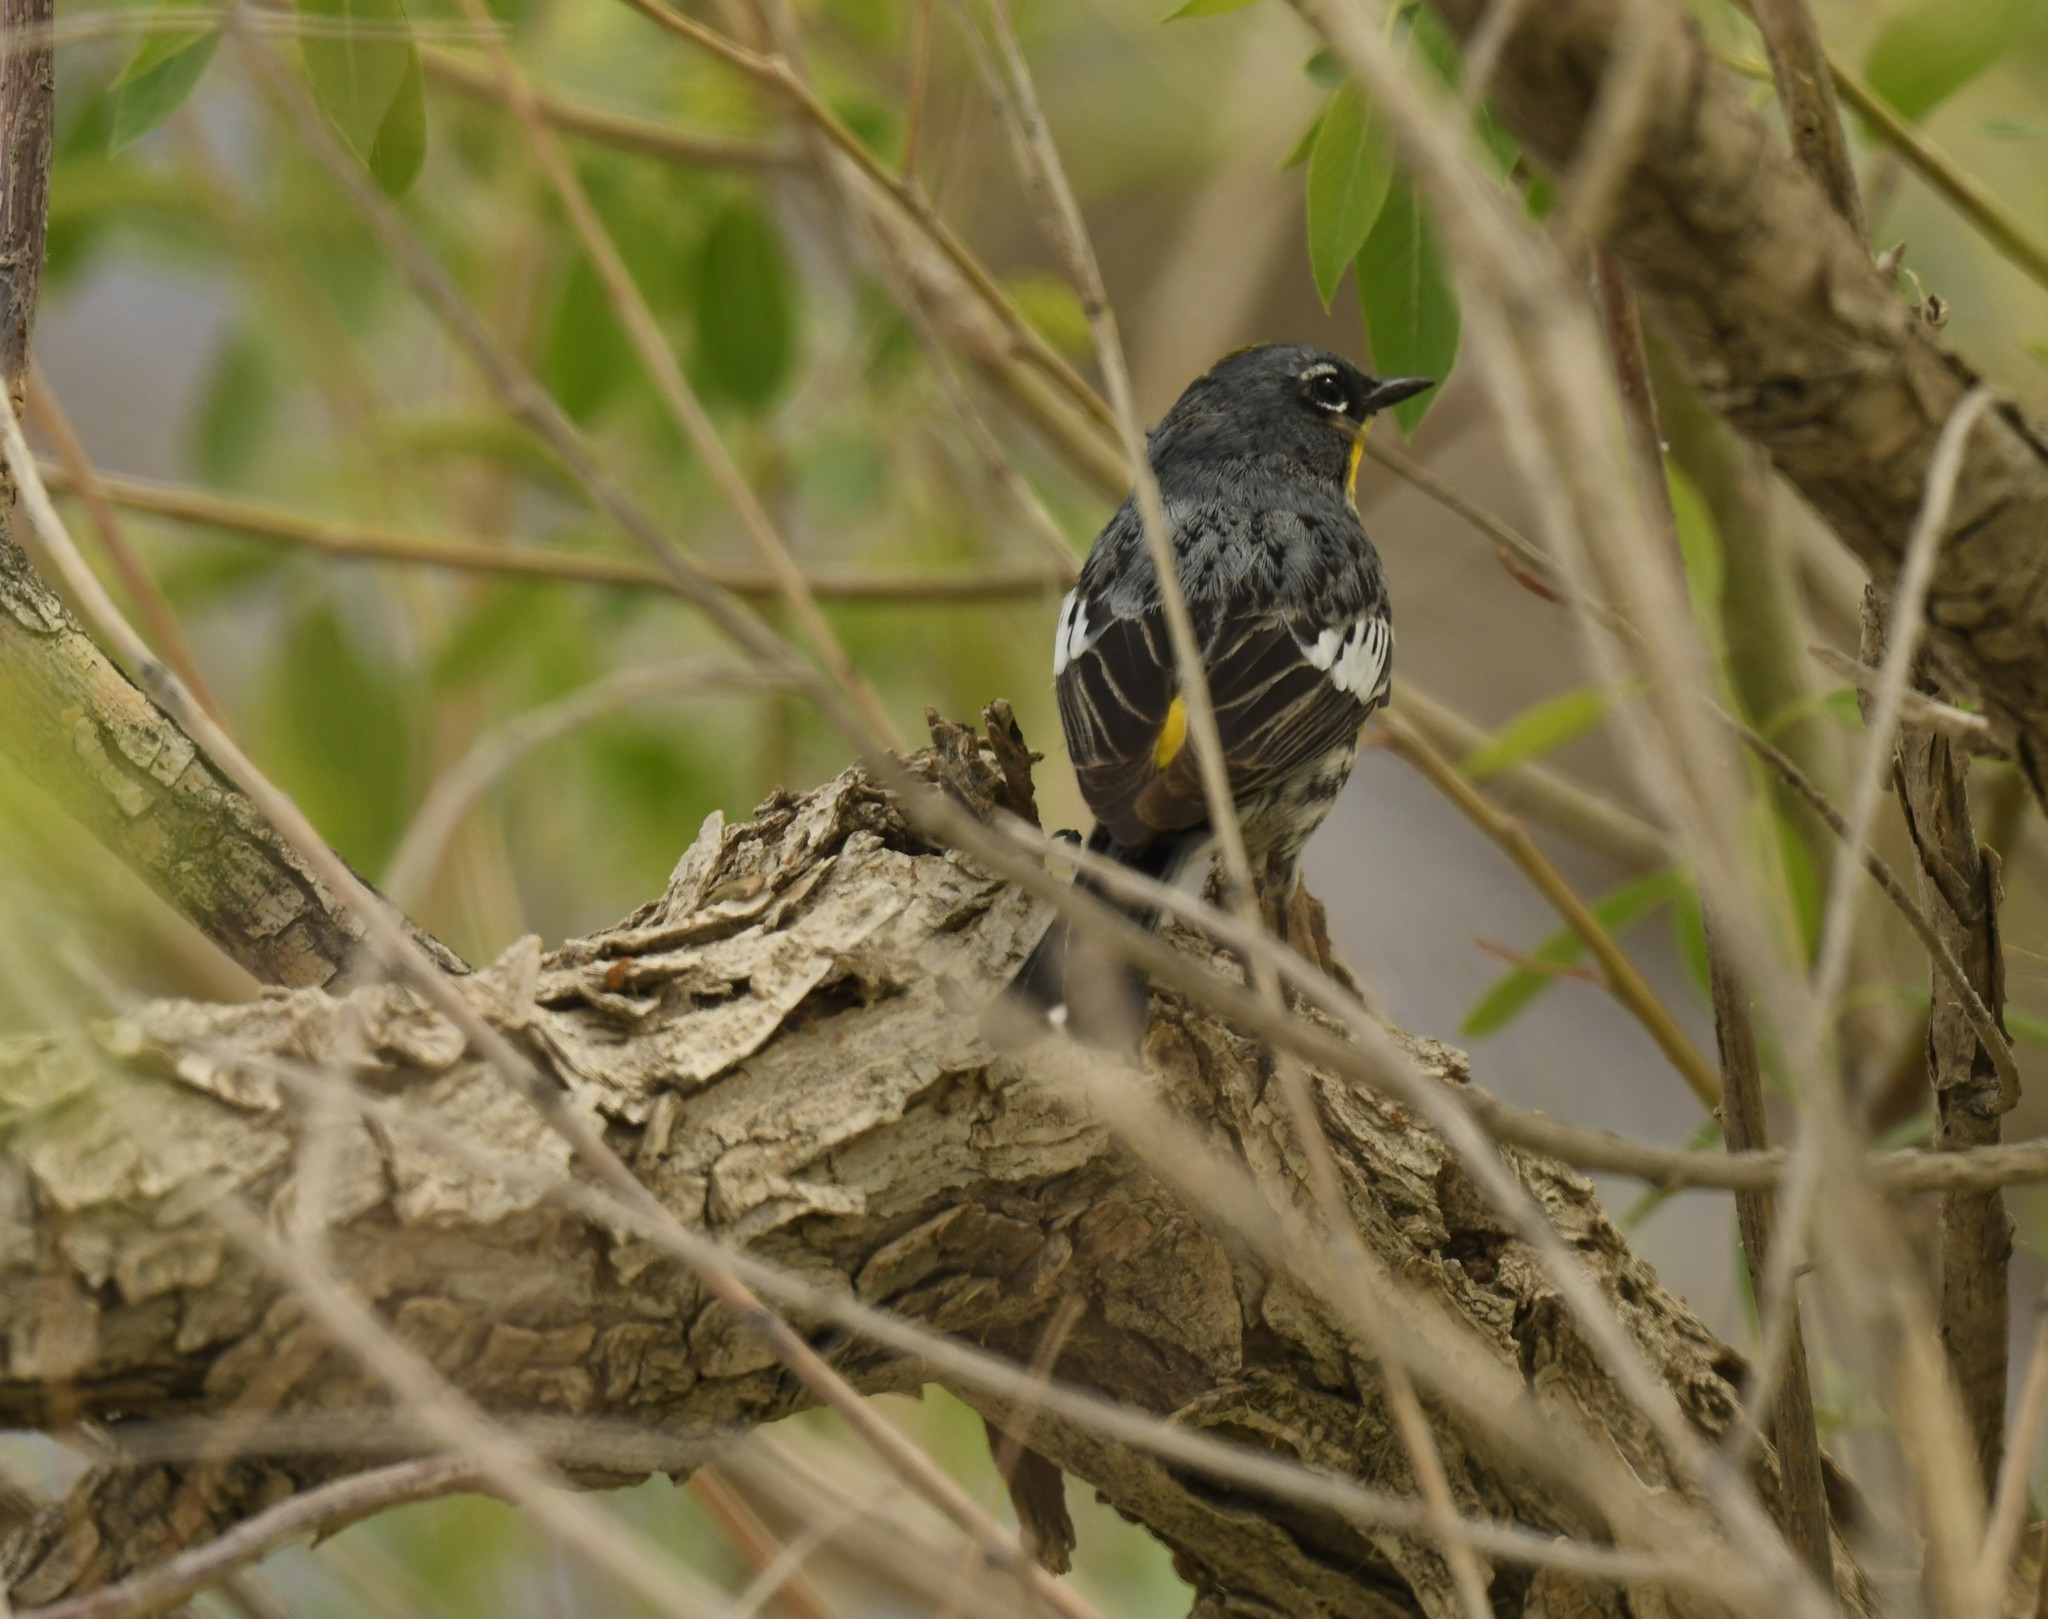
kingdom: Animalia
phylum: Chordata
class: Aves
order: Passeriformes
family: Parulidae
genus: Setophaga
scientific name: Setophaga coronata
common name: Myrtle warbler
